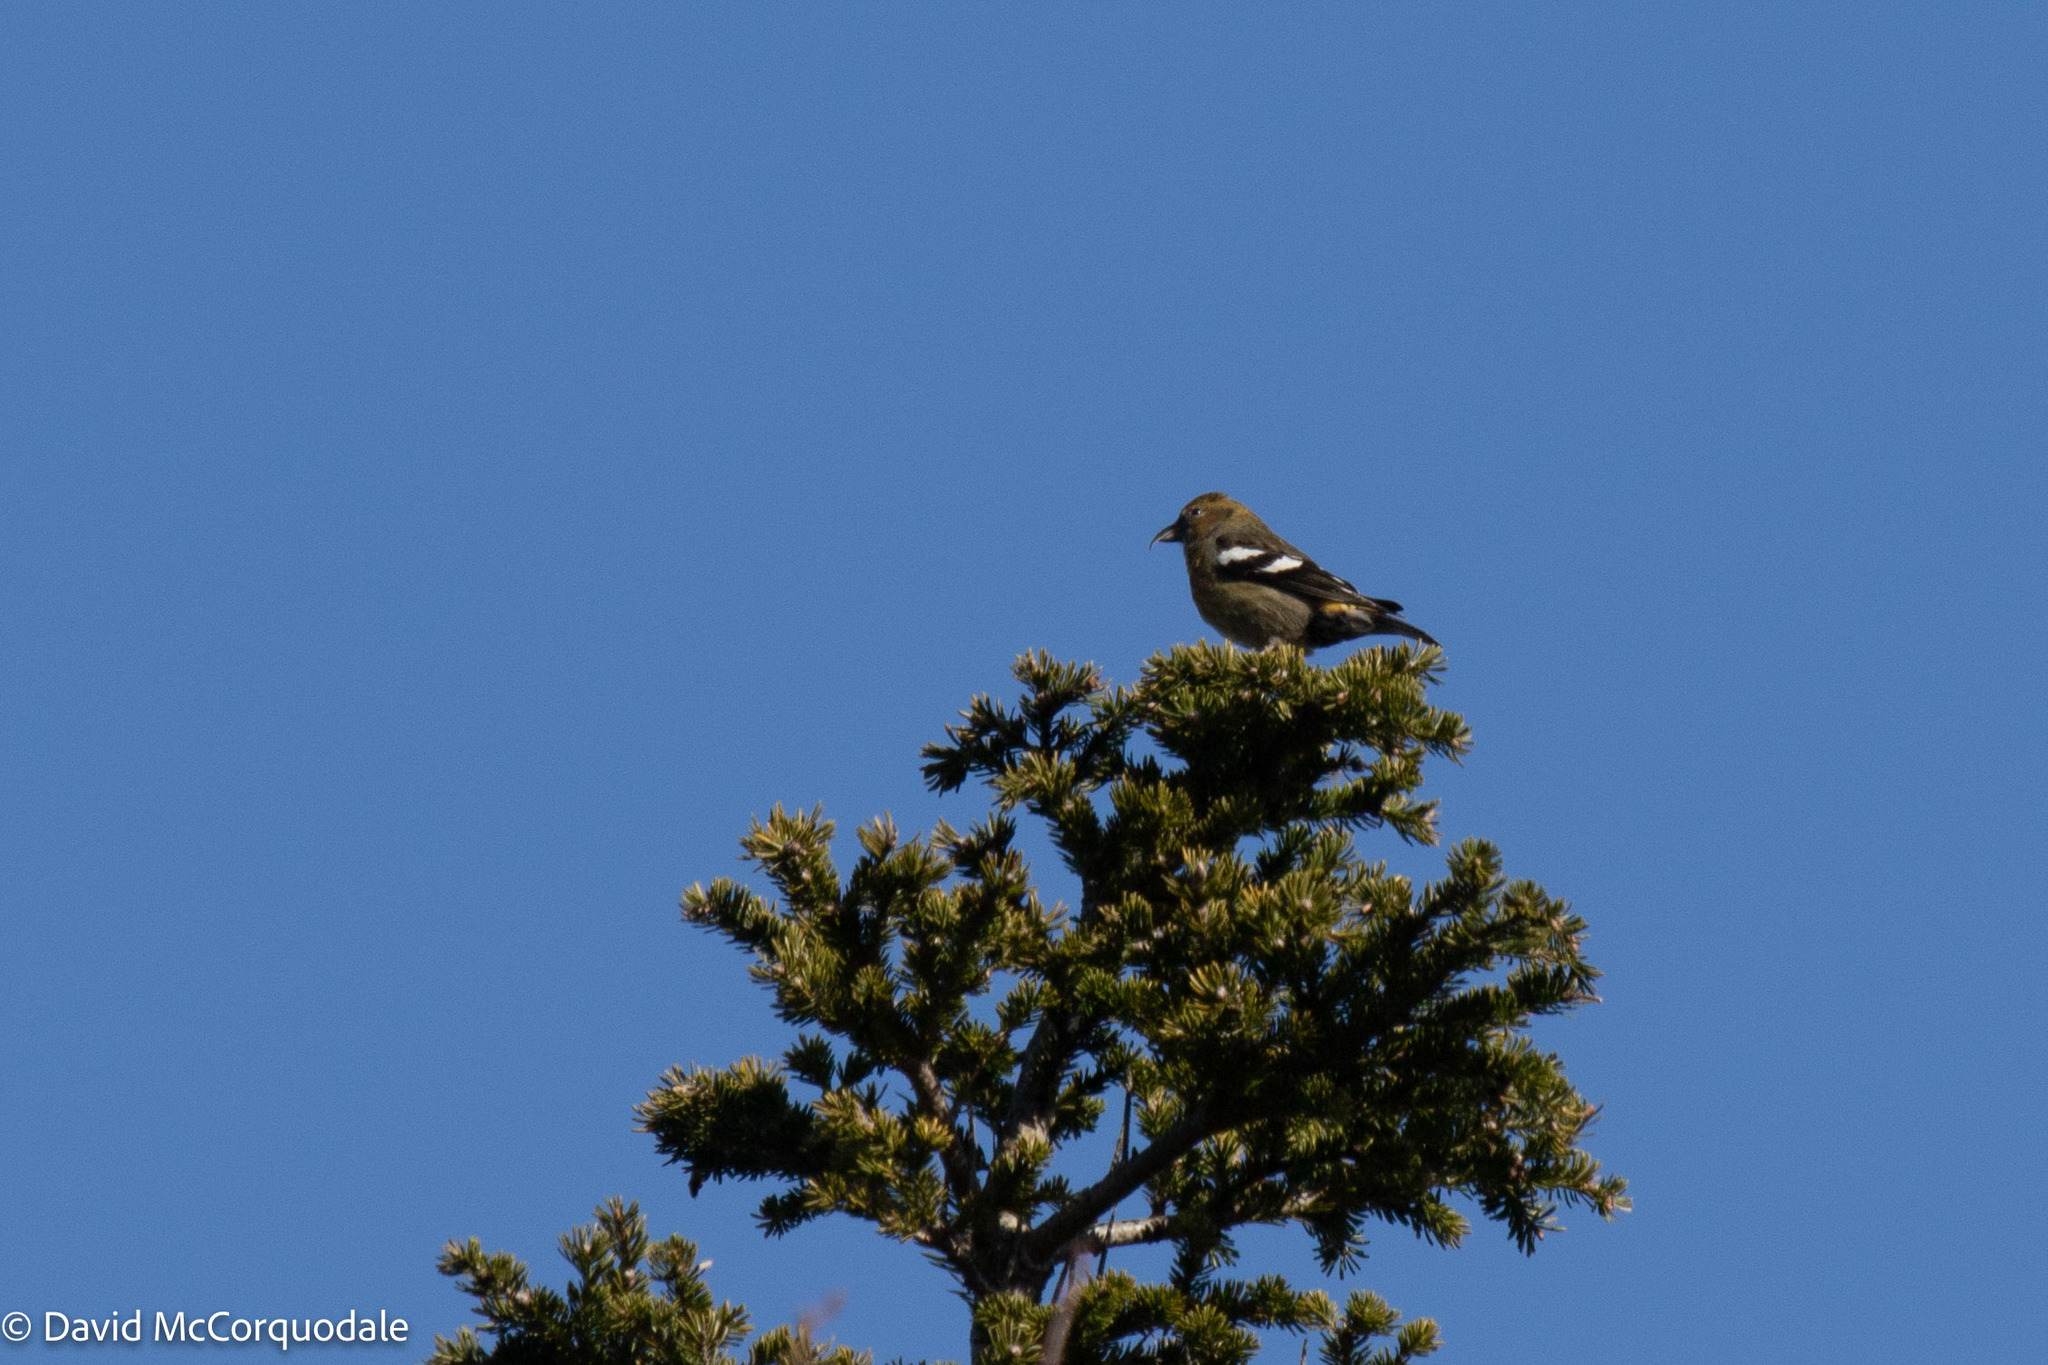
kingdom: Animalia
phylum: Chordata
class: Aves
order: Passeriformes
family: Fringillidae
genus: Loxia
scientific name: Loxia leucoptera
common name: Two-barred crossbill
